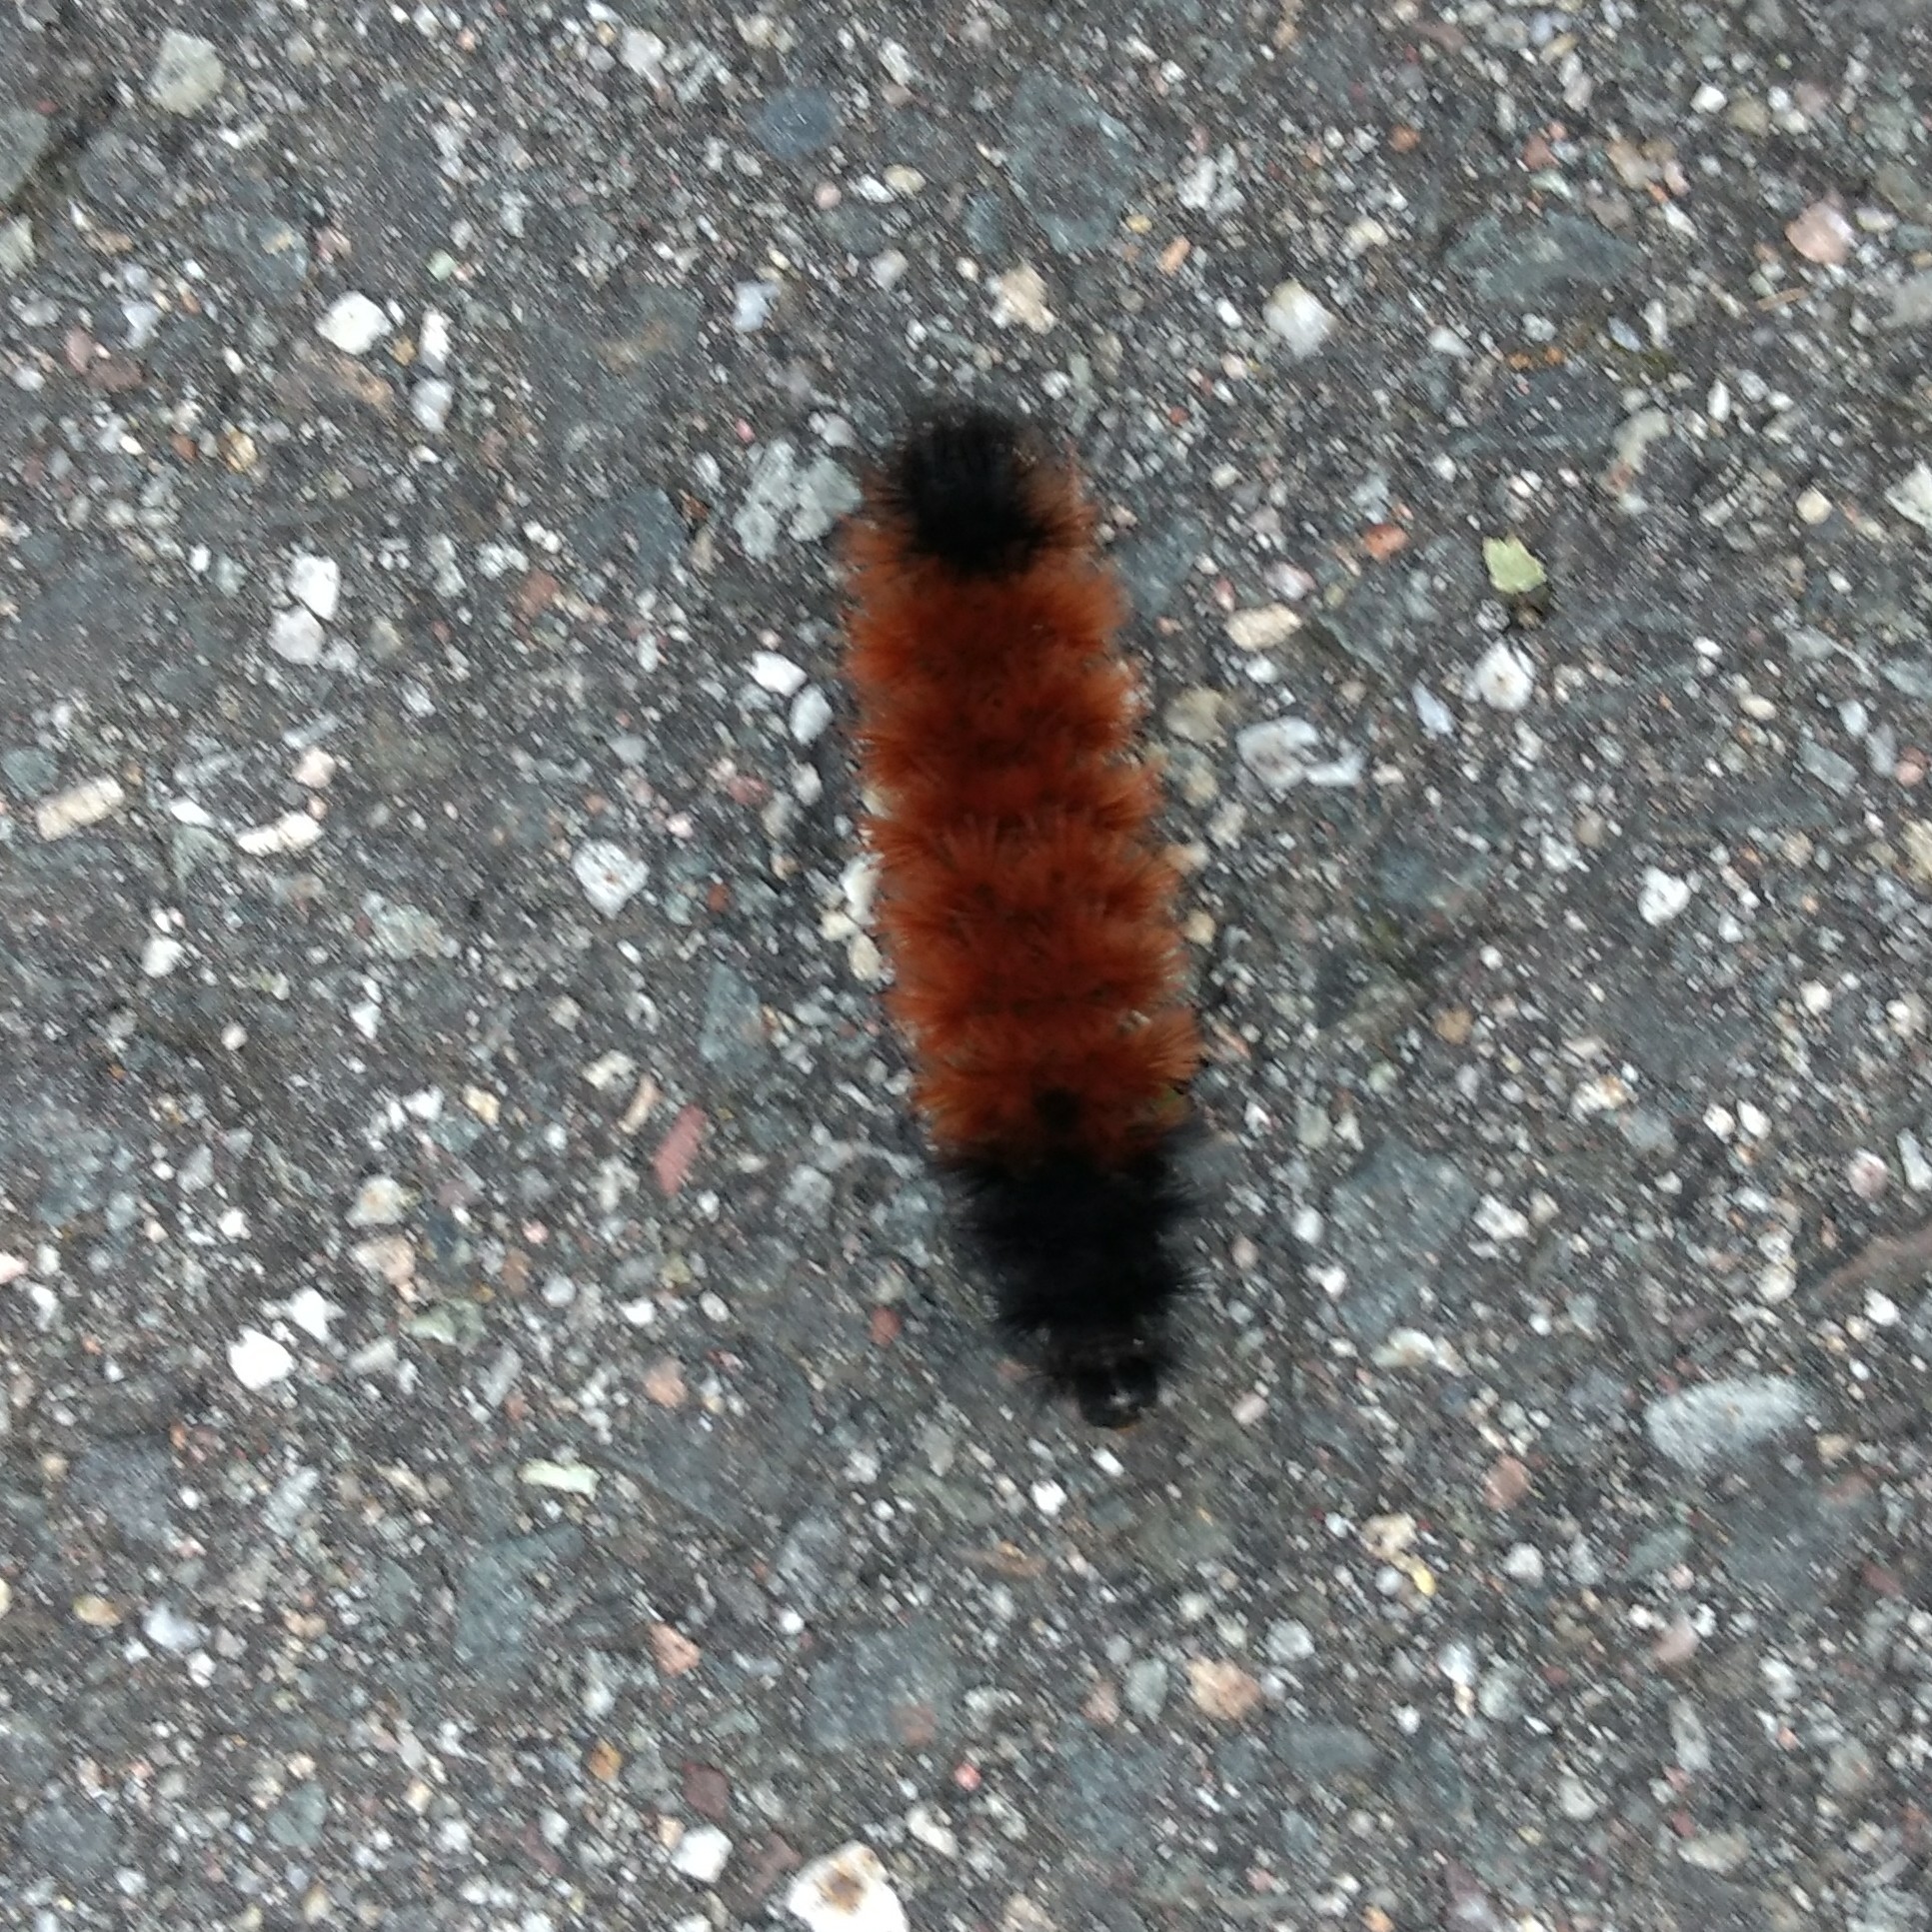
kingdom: Animalia
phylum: Arthropoda
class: Insecta
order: Lepidoptera
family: Erebidae
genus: Pyrrharctia
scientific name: Pyrrharctia isabella
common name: Isabella tiger moth
